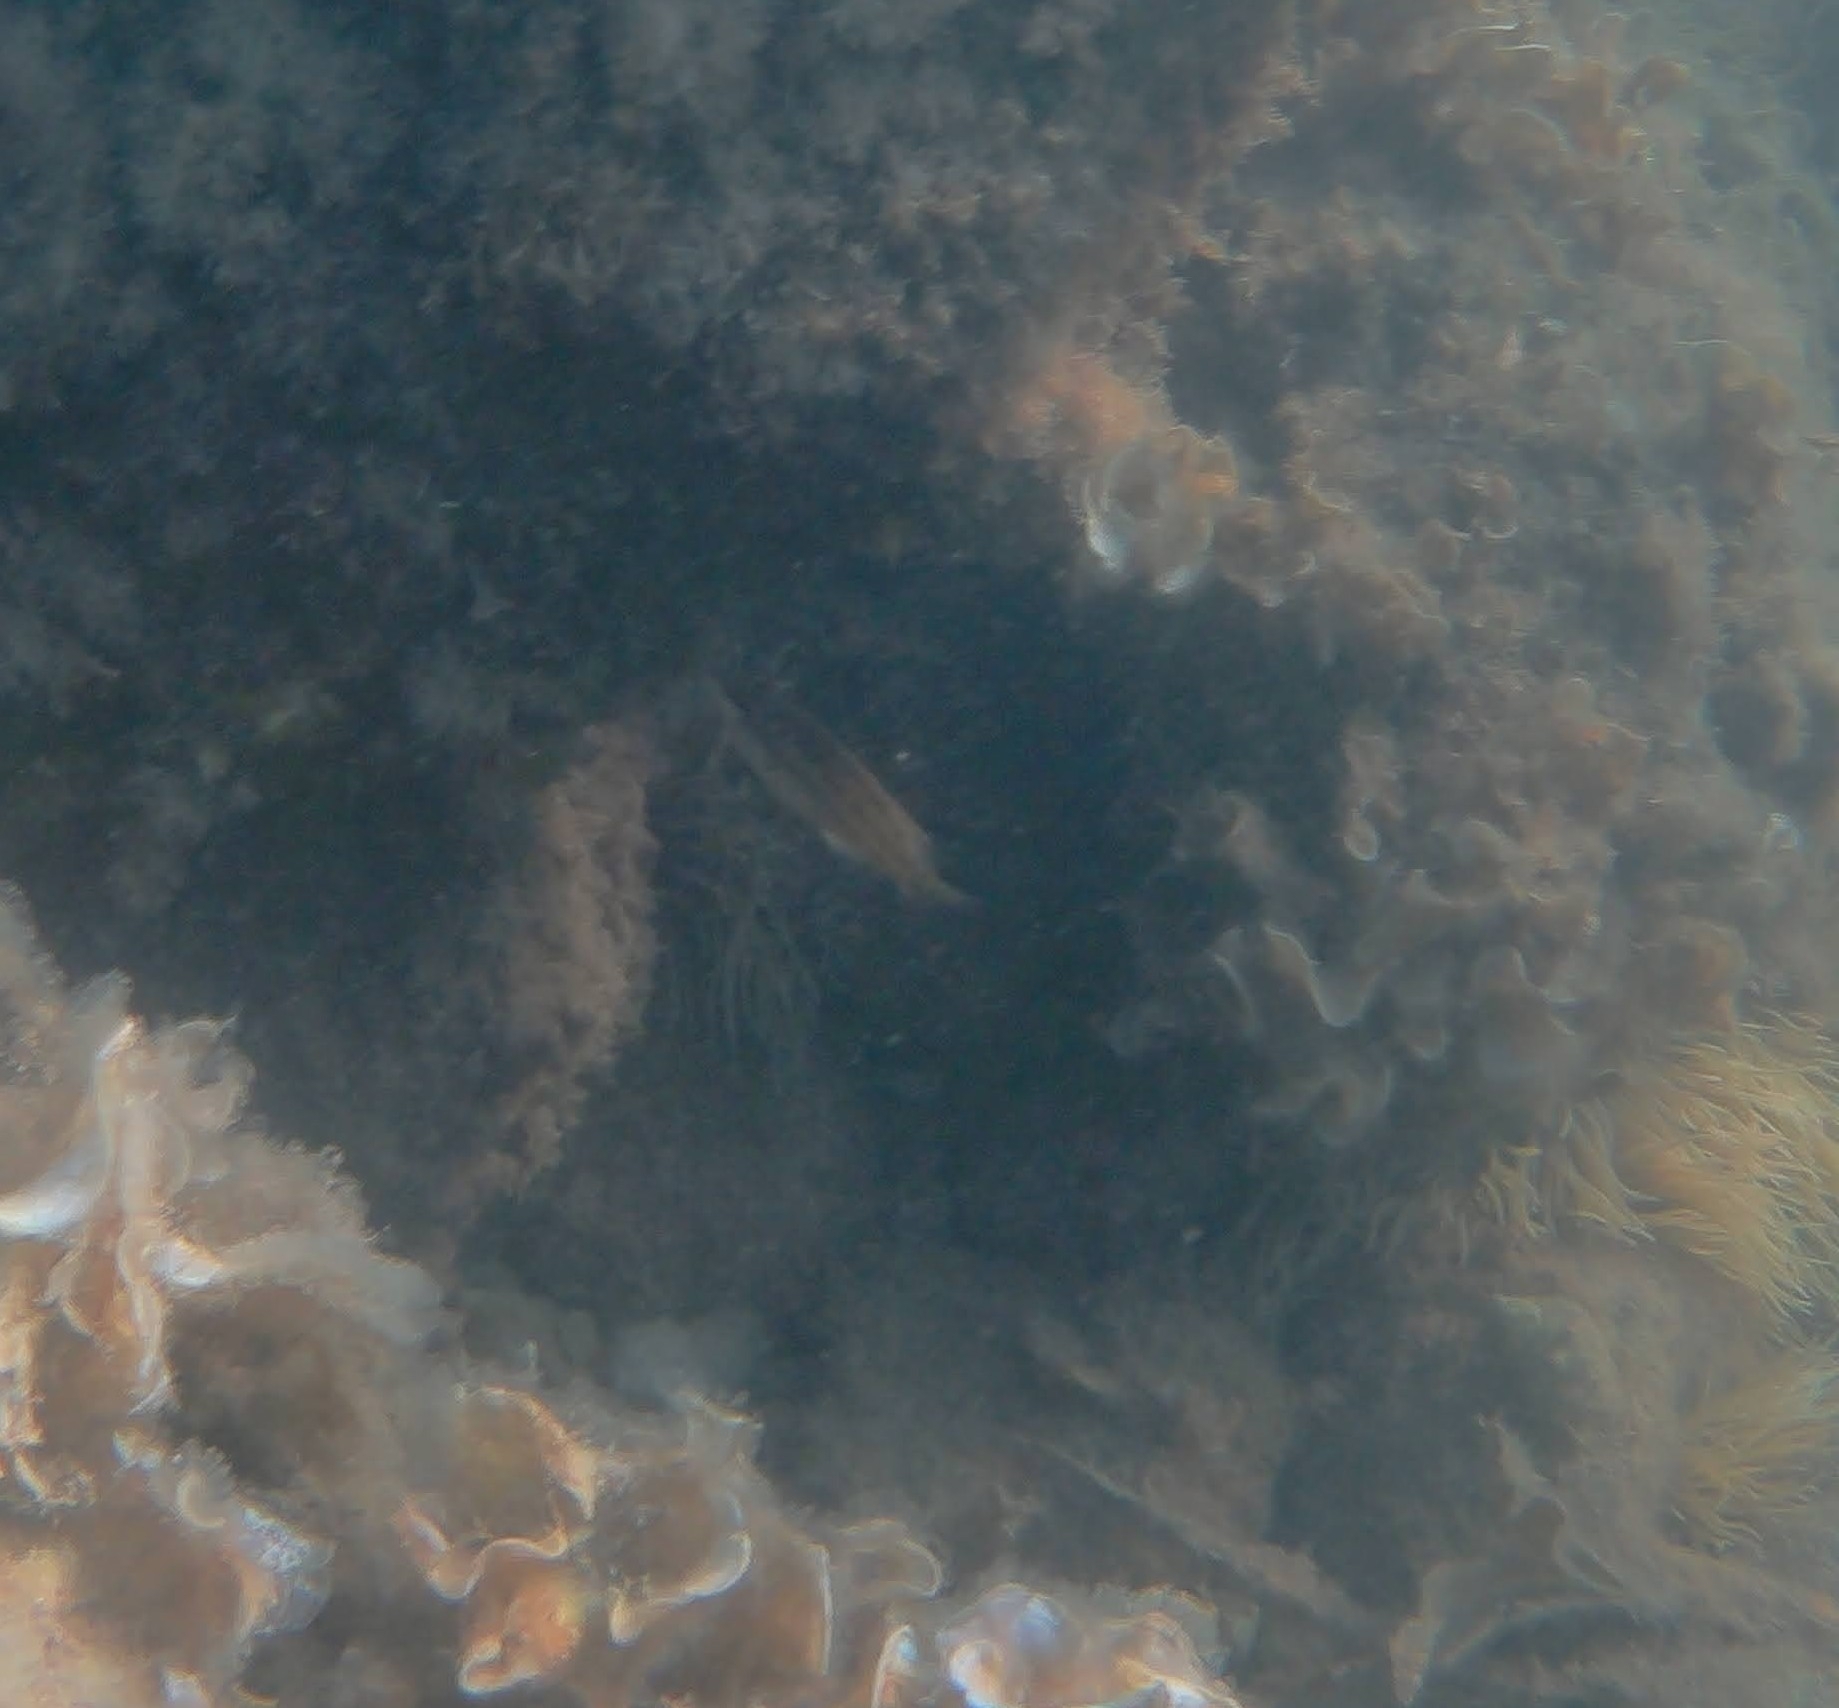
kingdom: Animalia
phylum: Chordata
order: Perciformes
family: Labridae
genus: Symphodus
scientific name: Symphodus tinca
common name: Peacock wrasse
